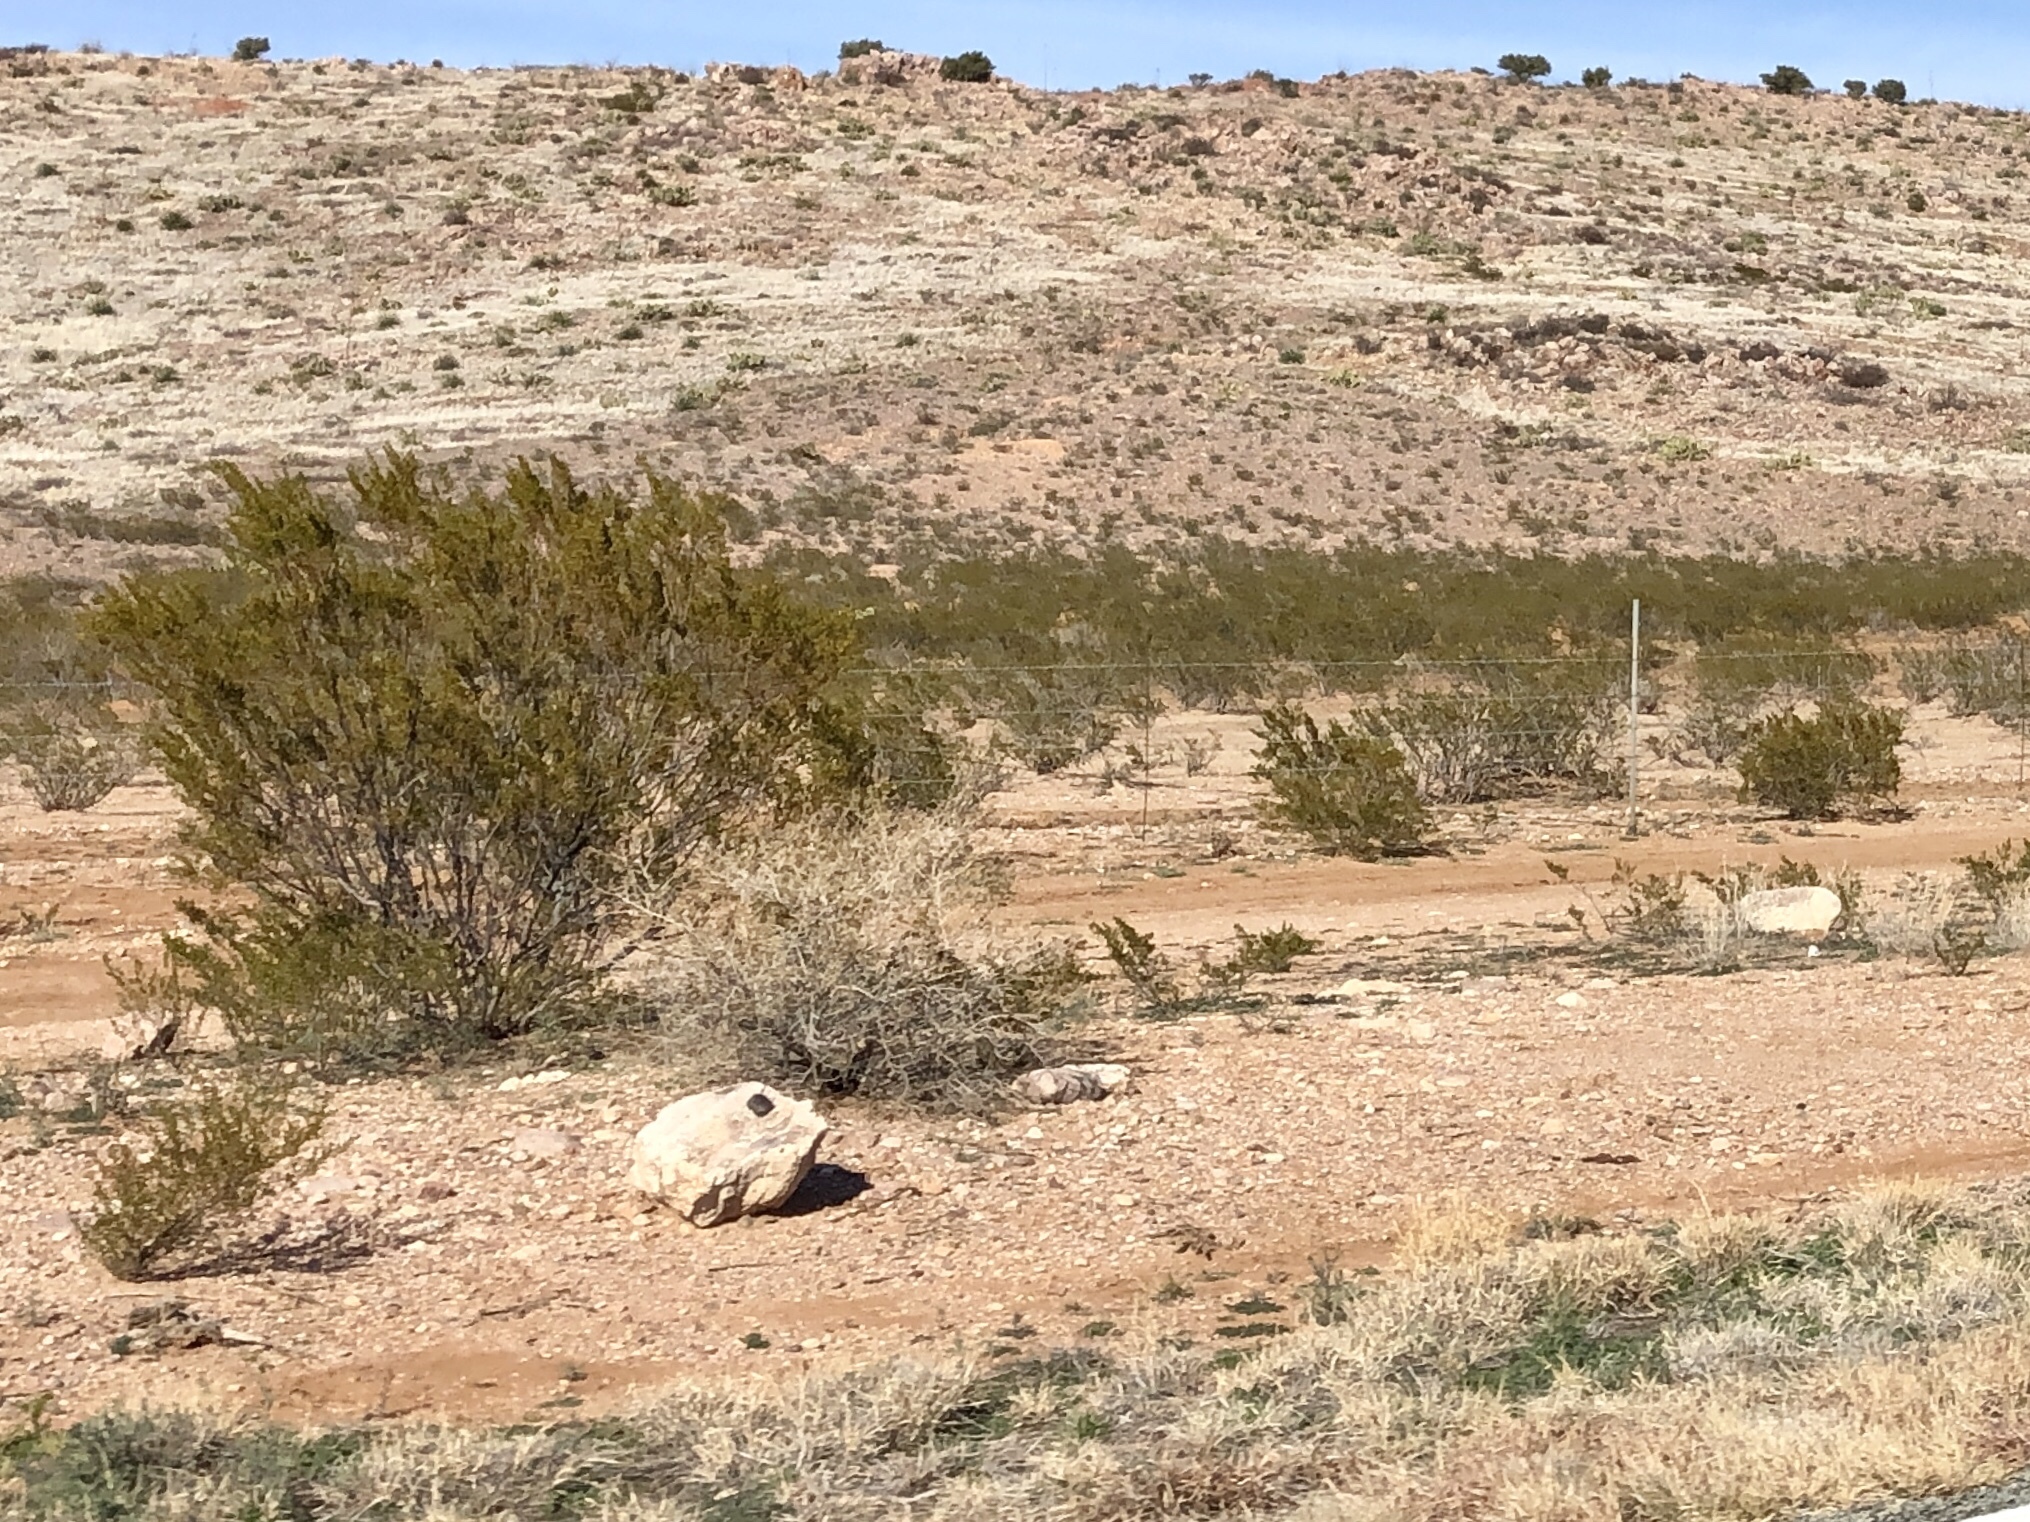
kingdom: Plantae
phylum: Tracheophyta
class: Magnoliopsida
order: Zygophyllales
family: Zygophyllaceae
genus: Larrea
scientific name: Larrea tridentata
